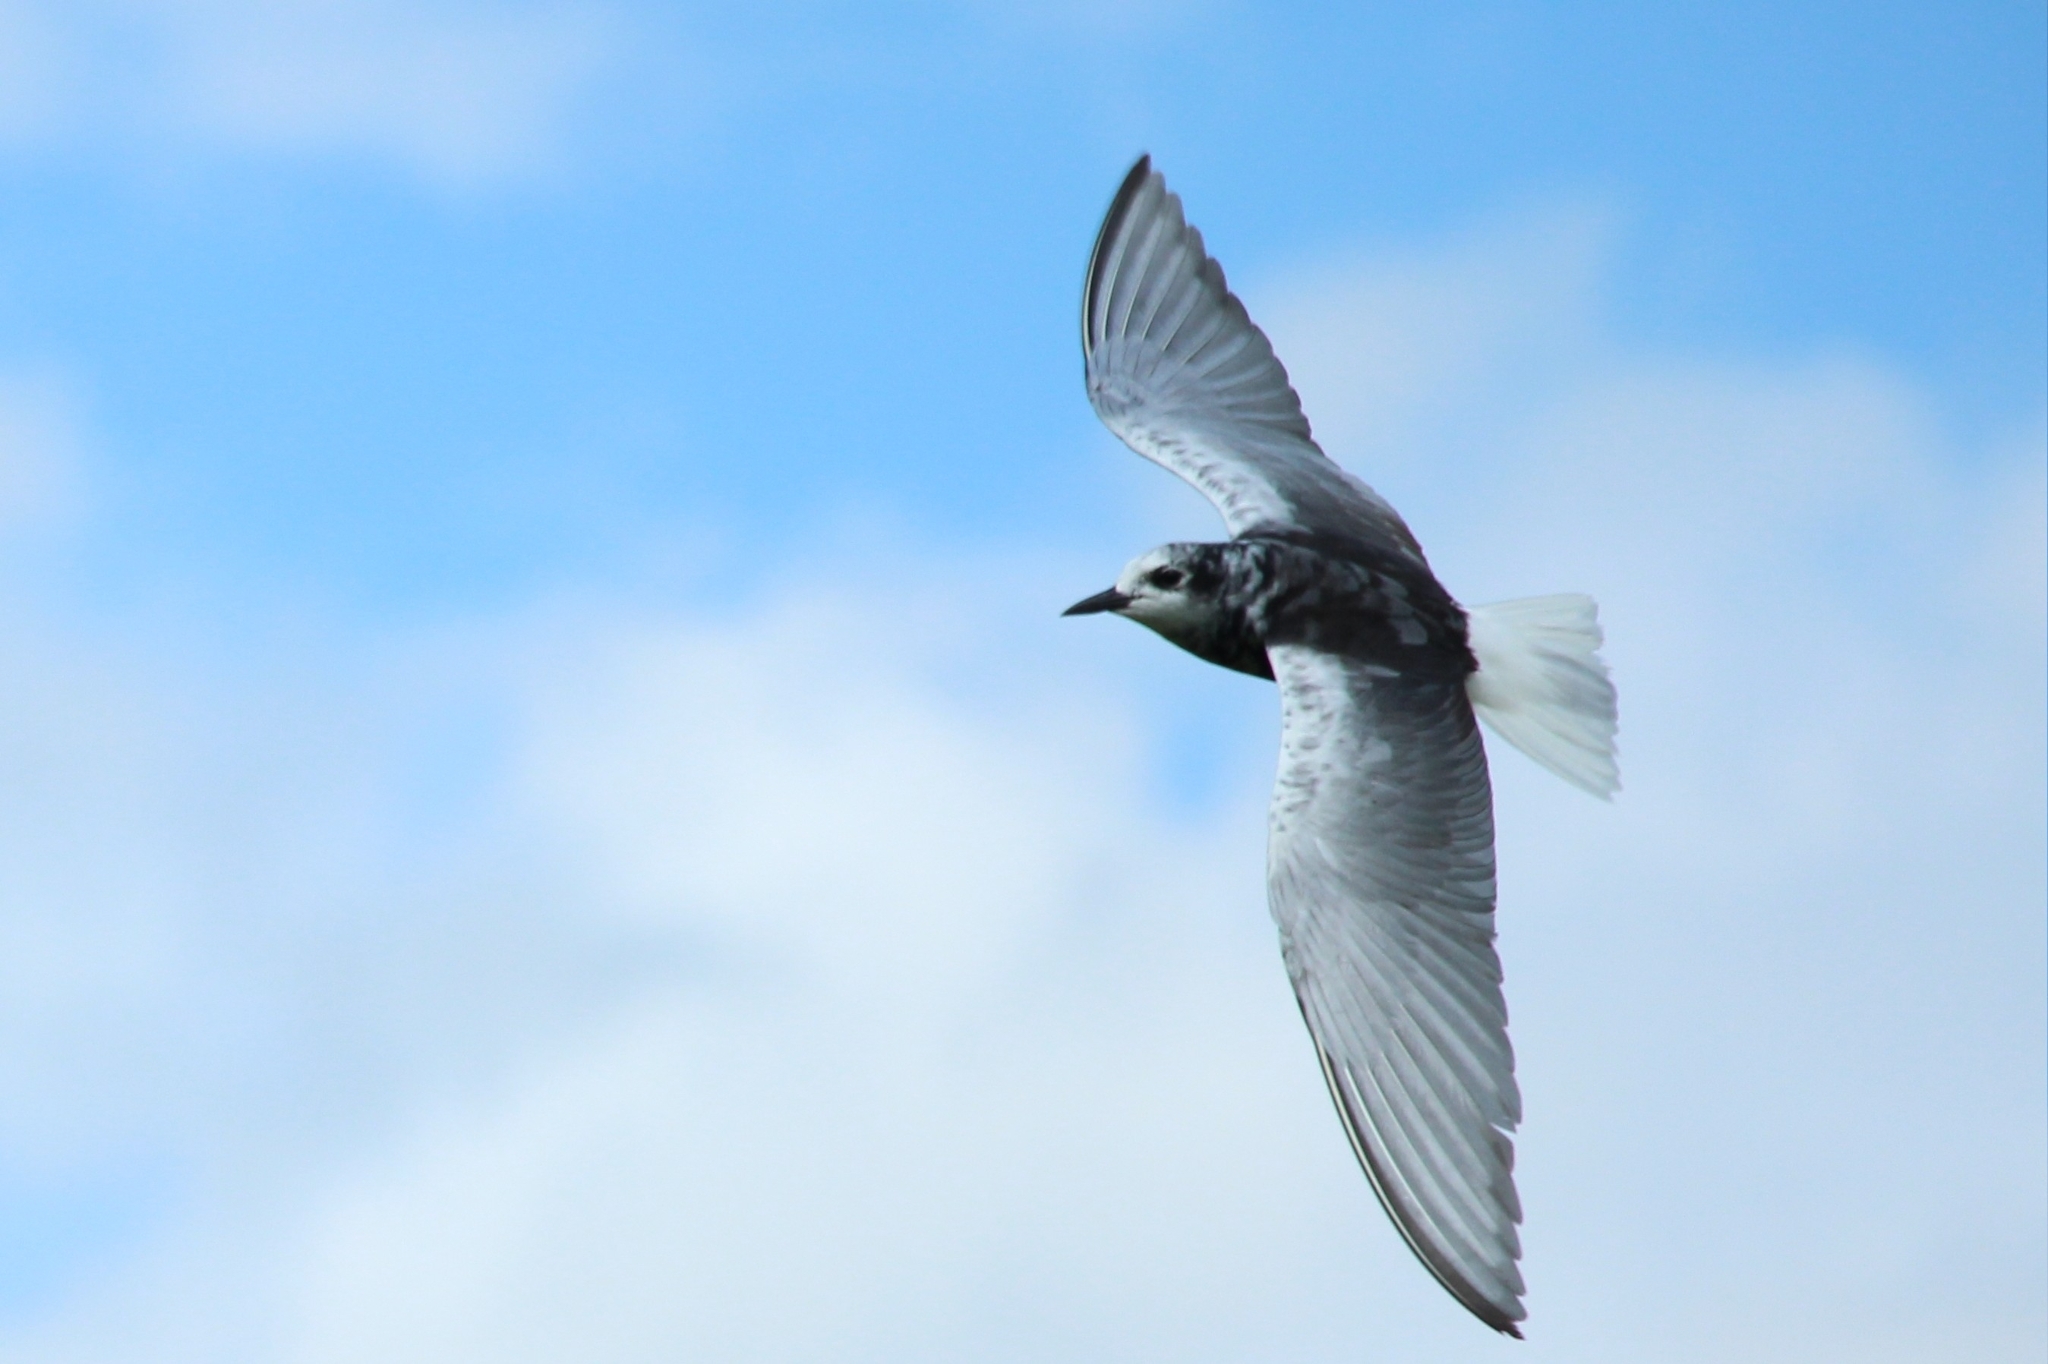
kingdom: Animalia
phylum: Chordata
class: Aves
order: Charadriiformes
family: Laridae
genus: Chlidonias
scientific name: Chlidonias leucopterus
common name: White-winged tern
